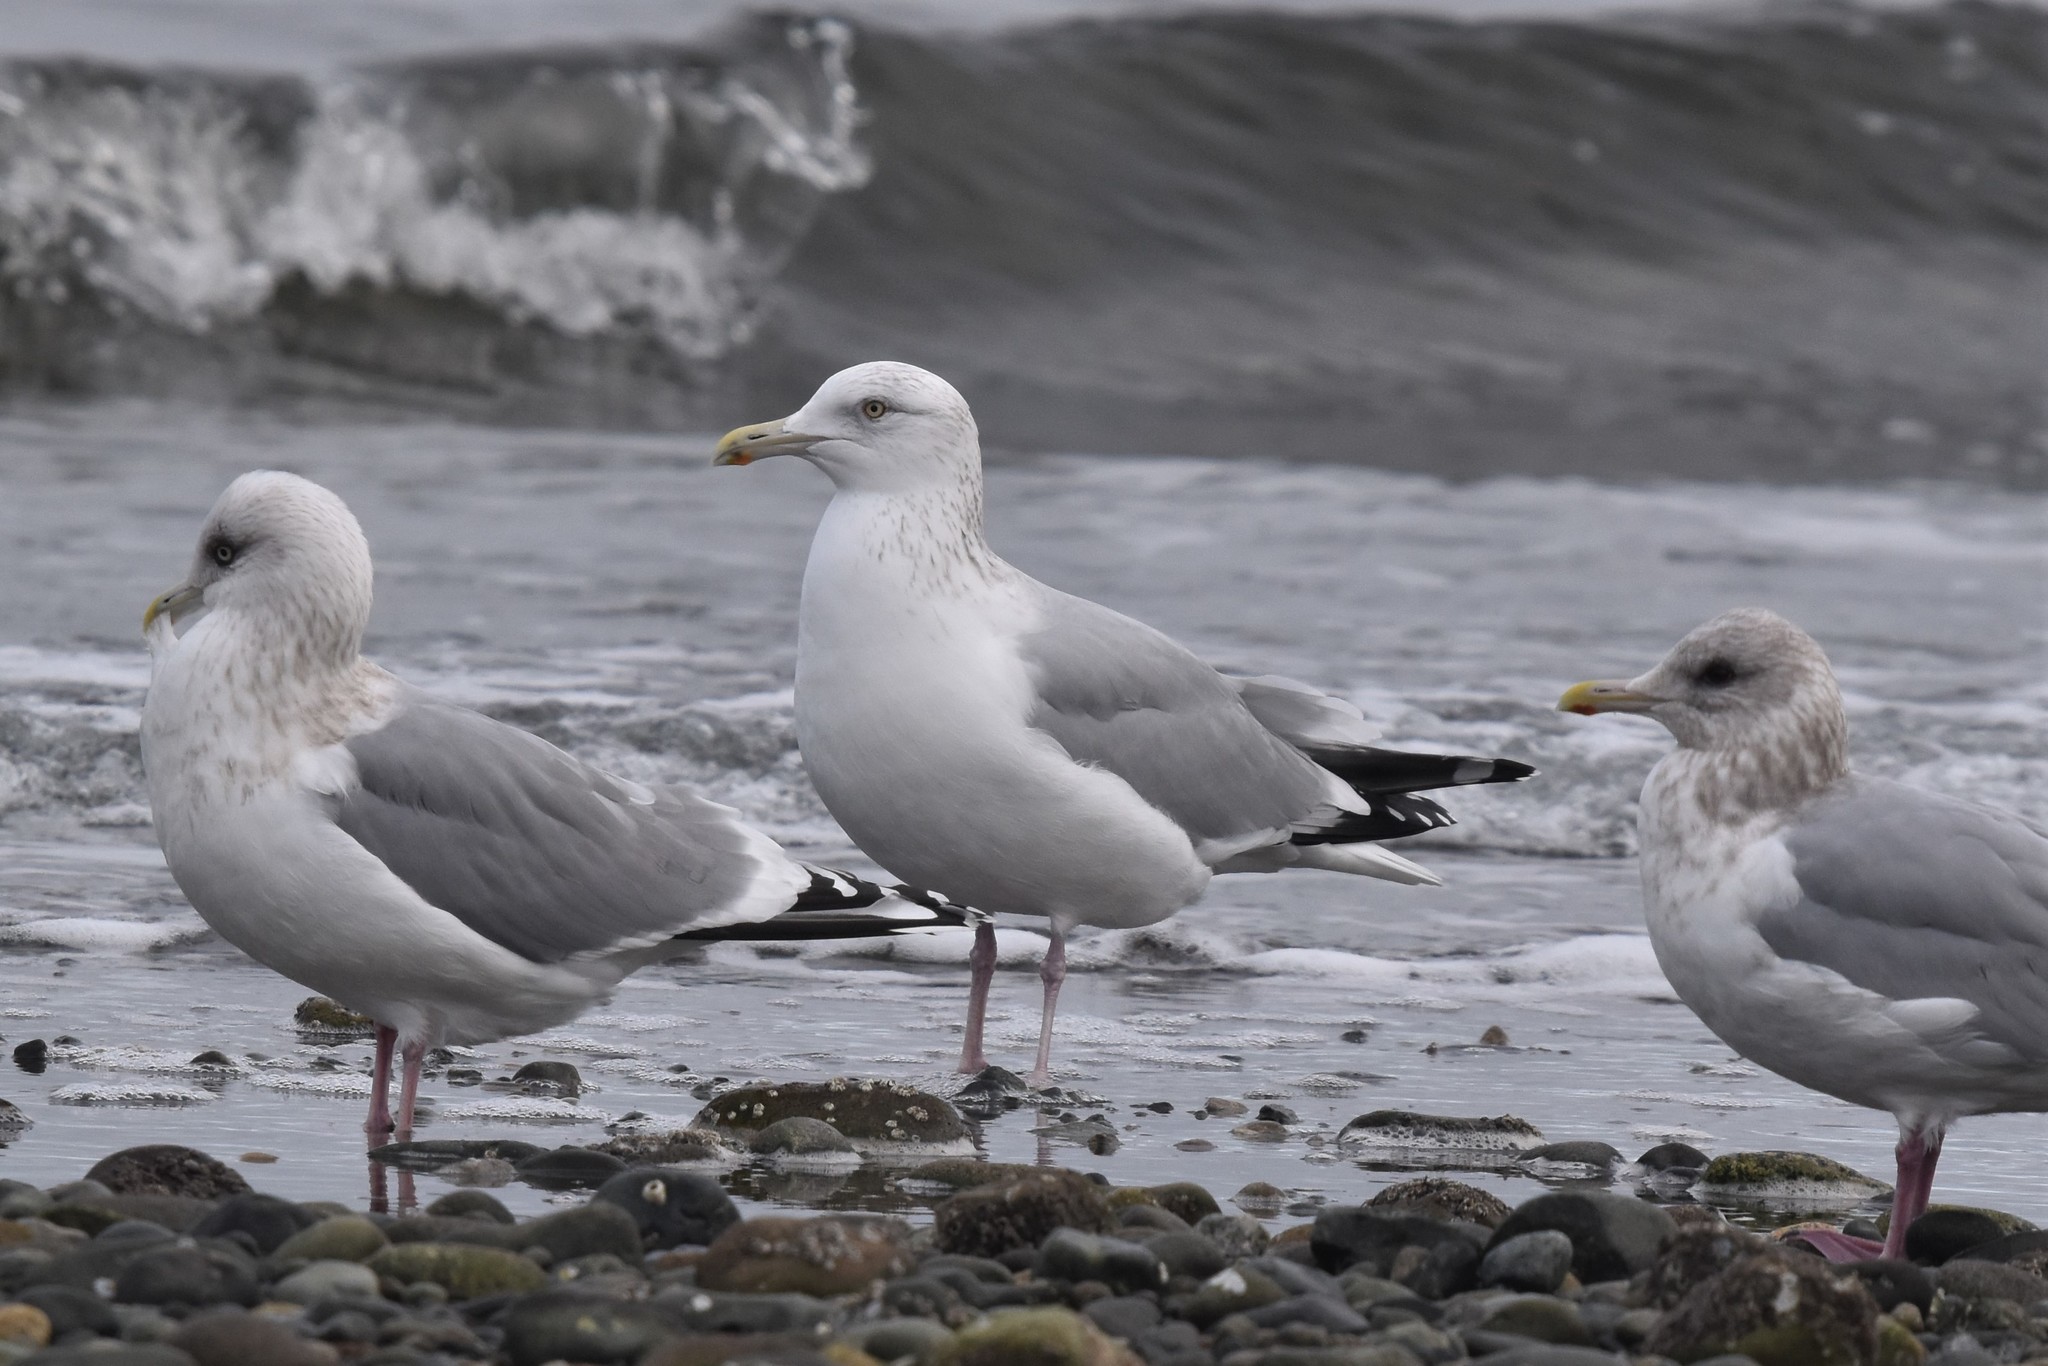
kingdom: Animalia
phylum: Chordata
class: Aves
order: Charadriiformes
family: Laridae
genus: Larus
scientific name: Larus smithsonianus
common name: American herring gull
